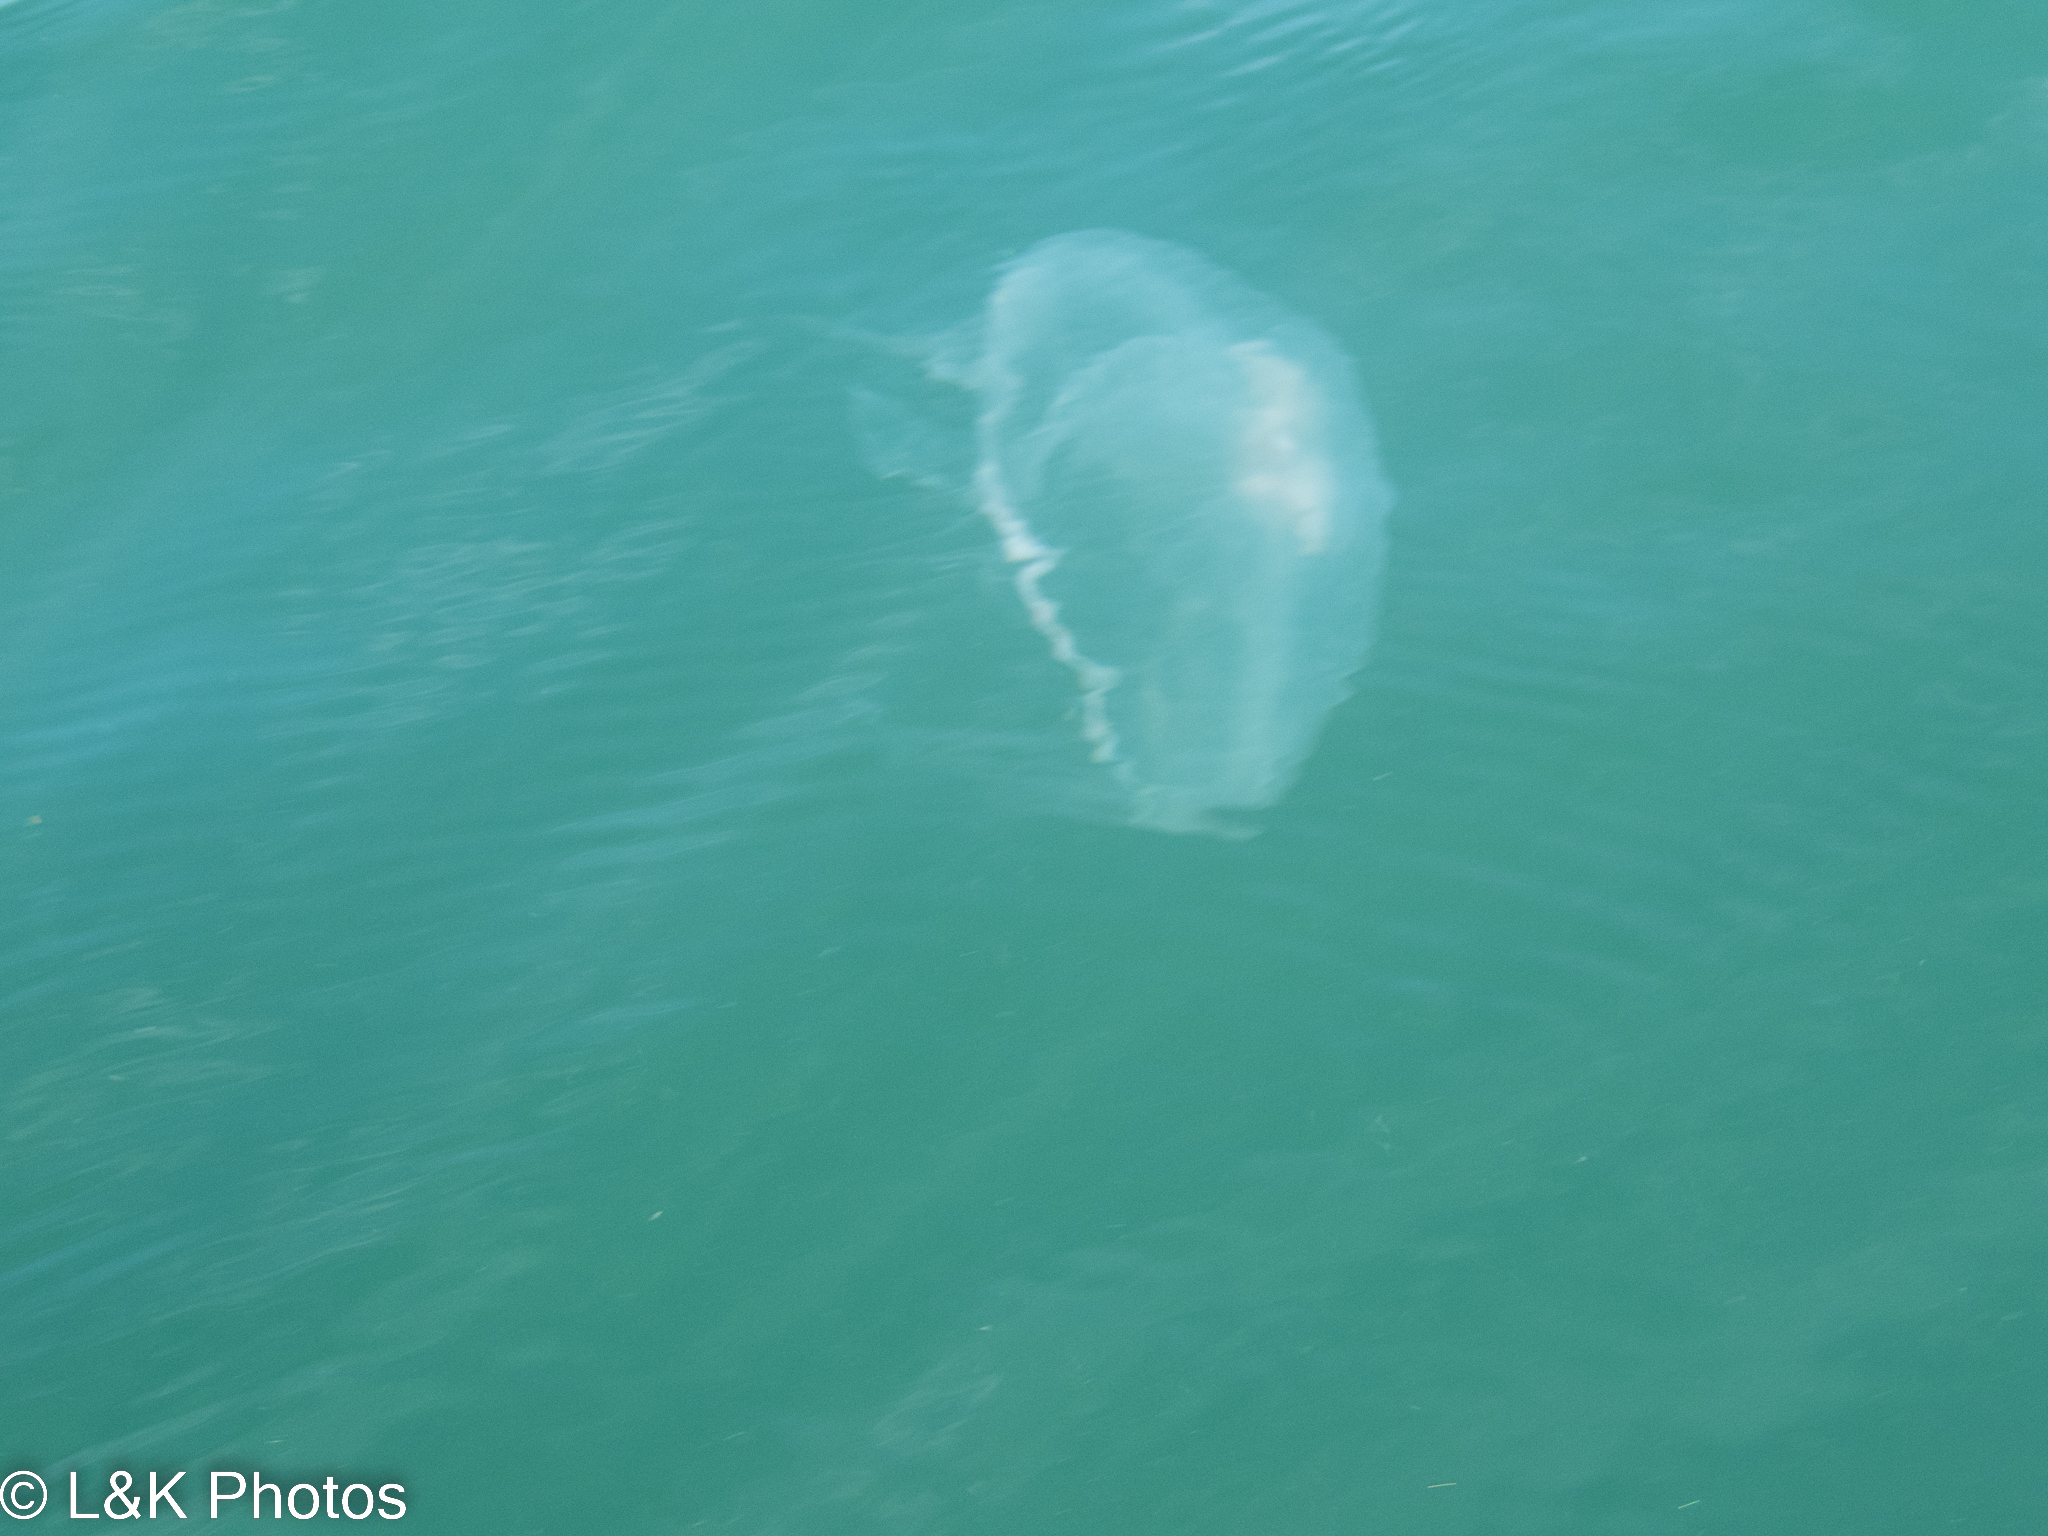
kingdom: Animalia
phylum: Cnidaria
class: Scyphozoa
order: Semaeostomeae
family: Ulmaridae
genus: Aurelia
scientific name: Aurelia marginalis
